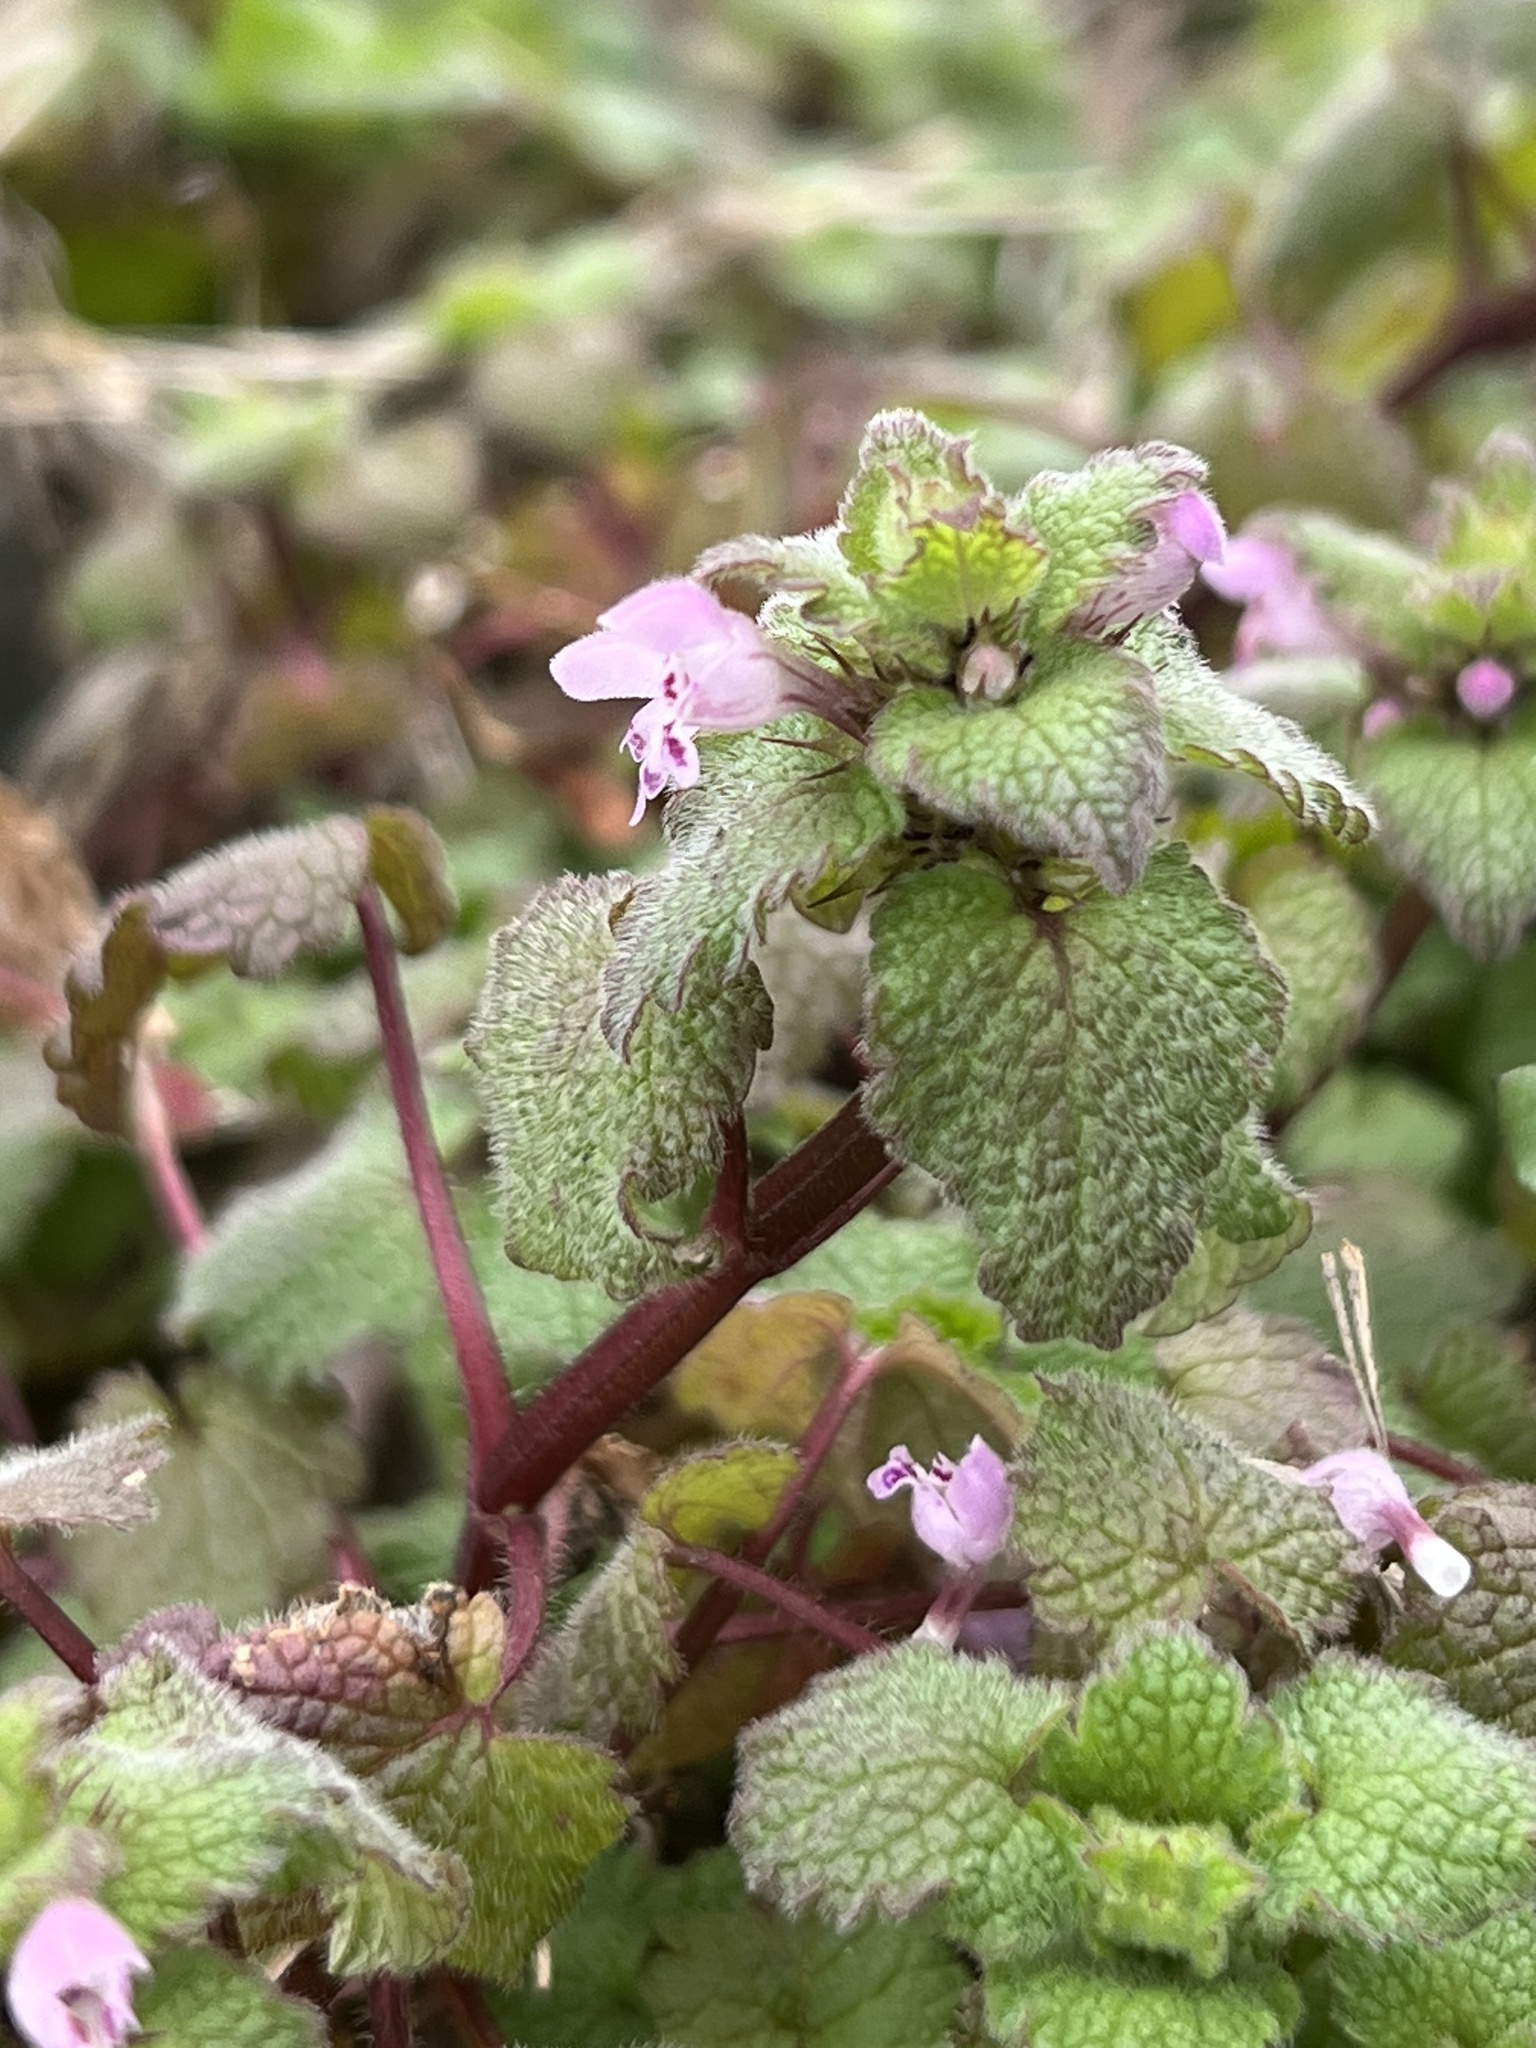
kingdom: Plantae
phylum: Tracheophyta
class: Magnoliopsida
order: Lamiales
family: Lamiaceae
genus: Lamium
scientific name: Lamium purpureum
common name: Red dead-nettle
